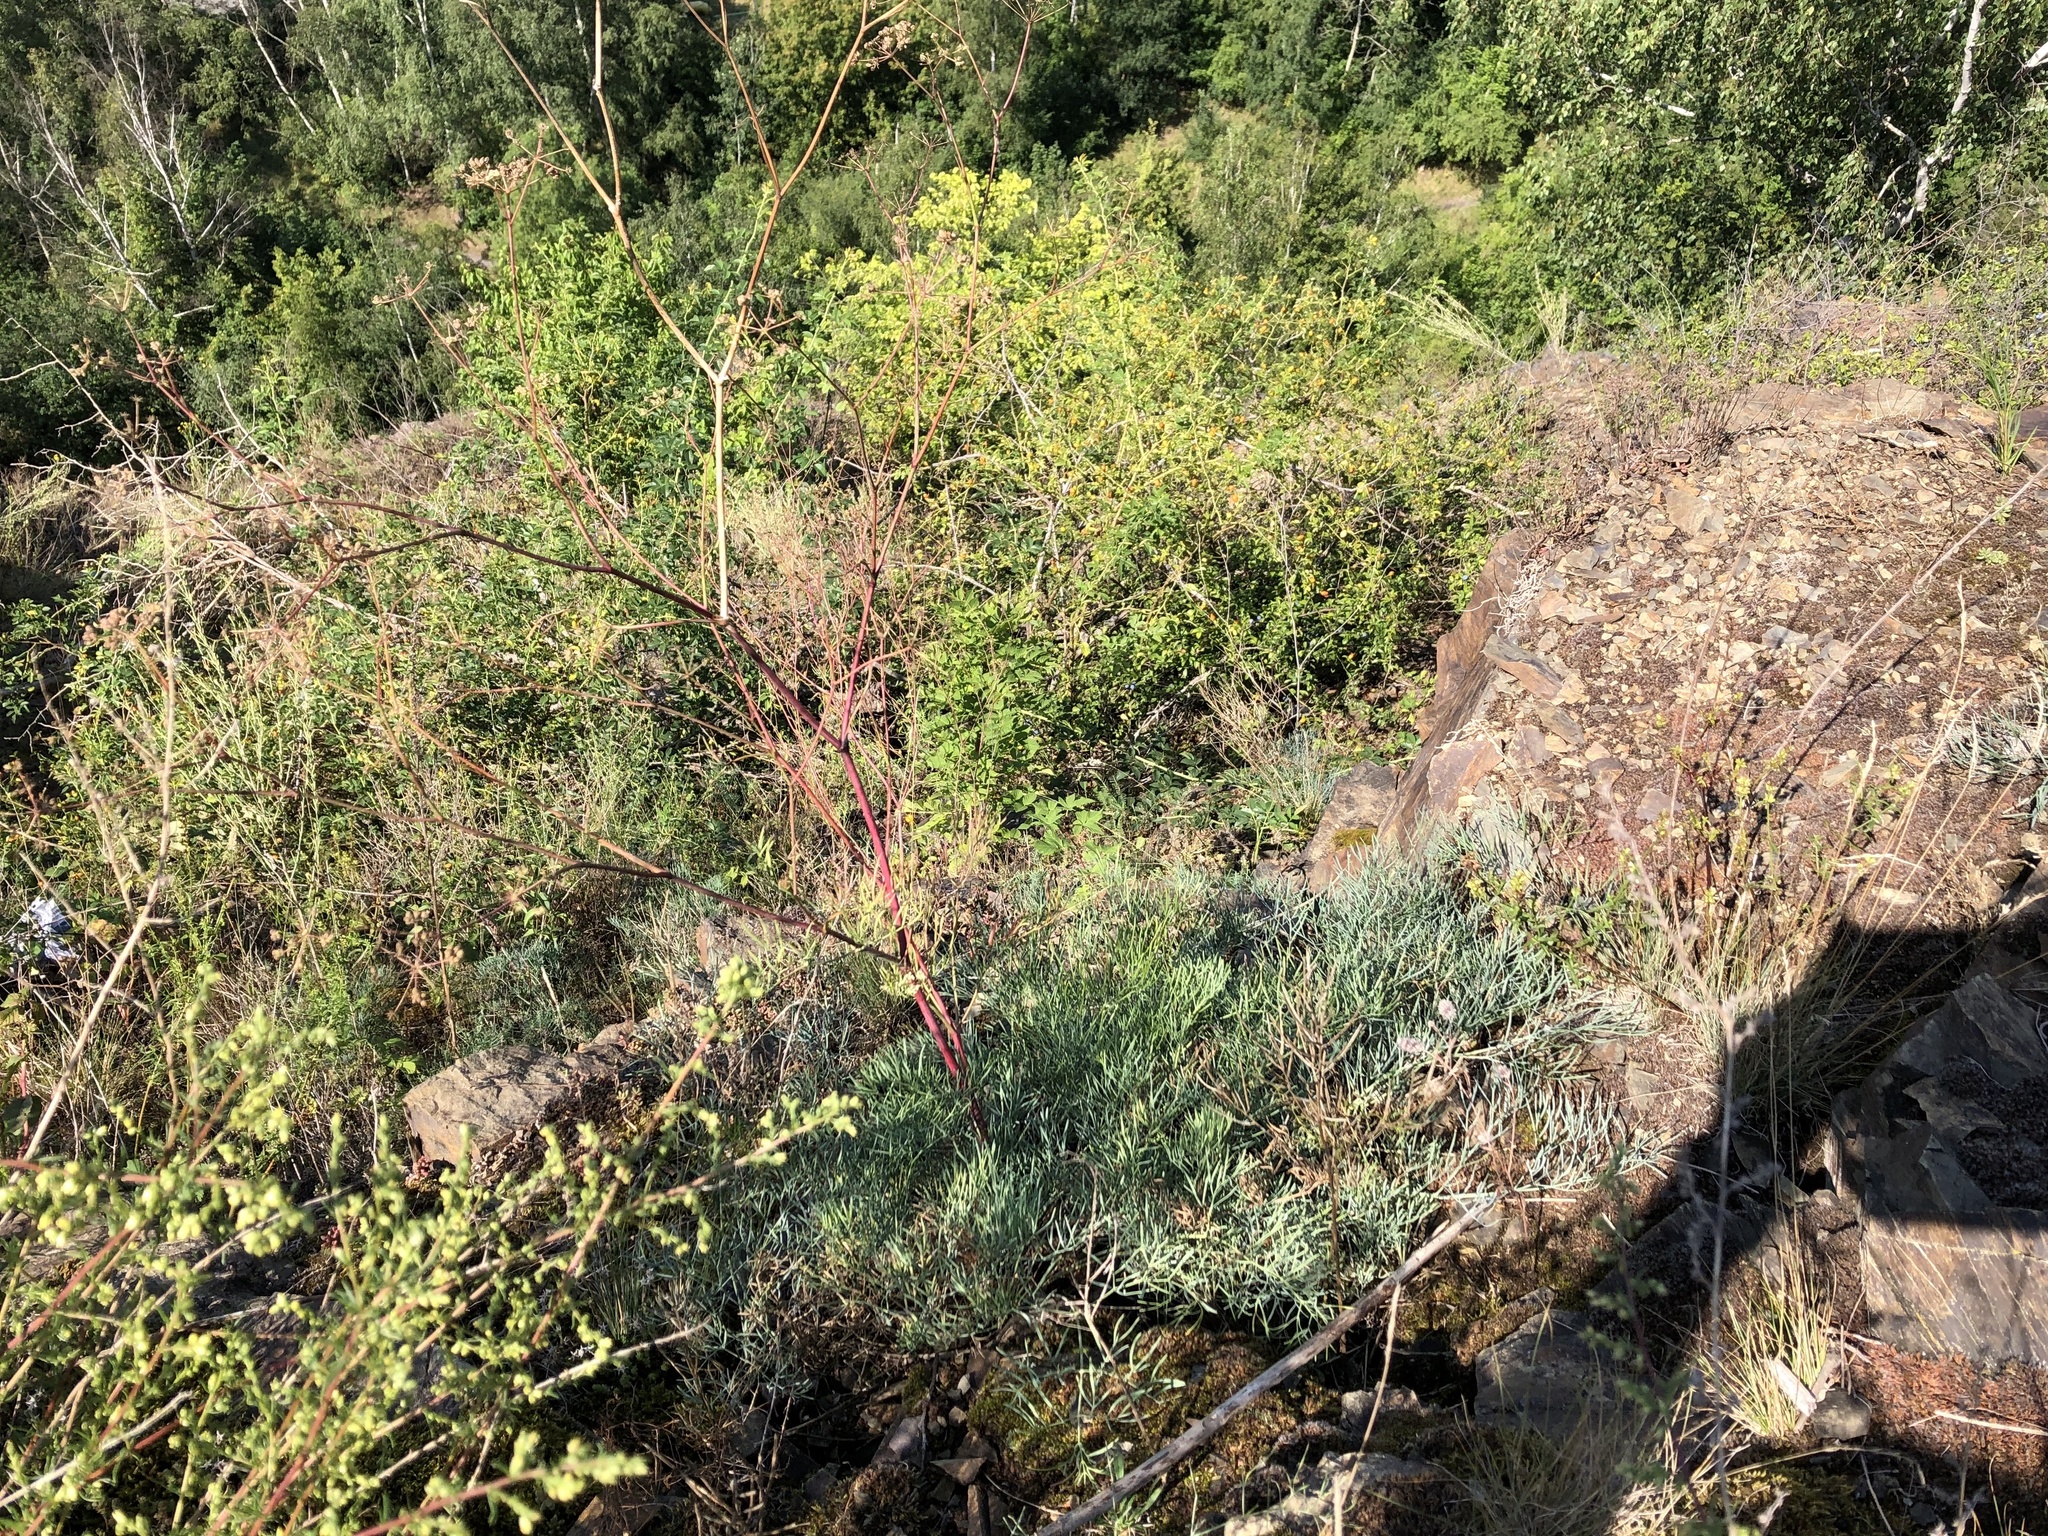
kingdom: Plantae
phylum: Tracheophyta
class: Magnoliopsida
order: Apiales
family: Apiaceae
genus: Seseli
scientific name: Seseli osseum
